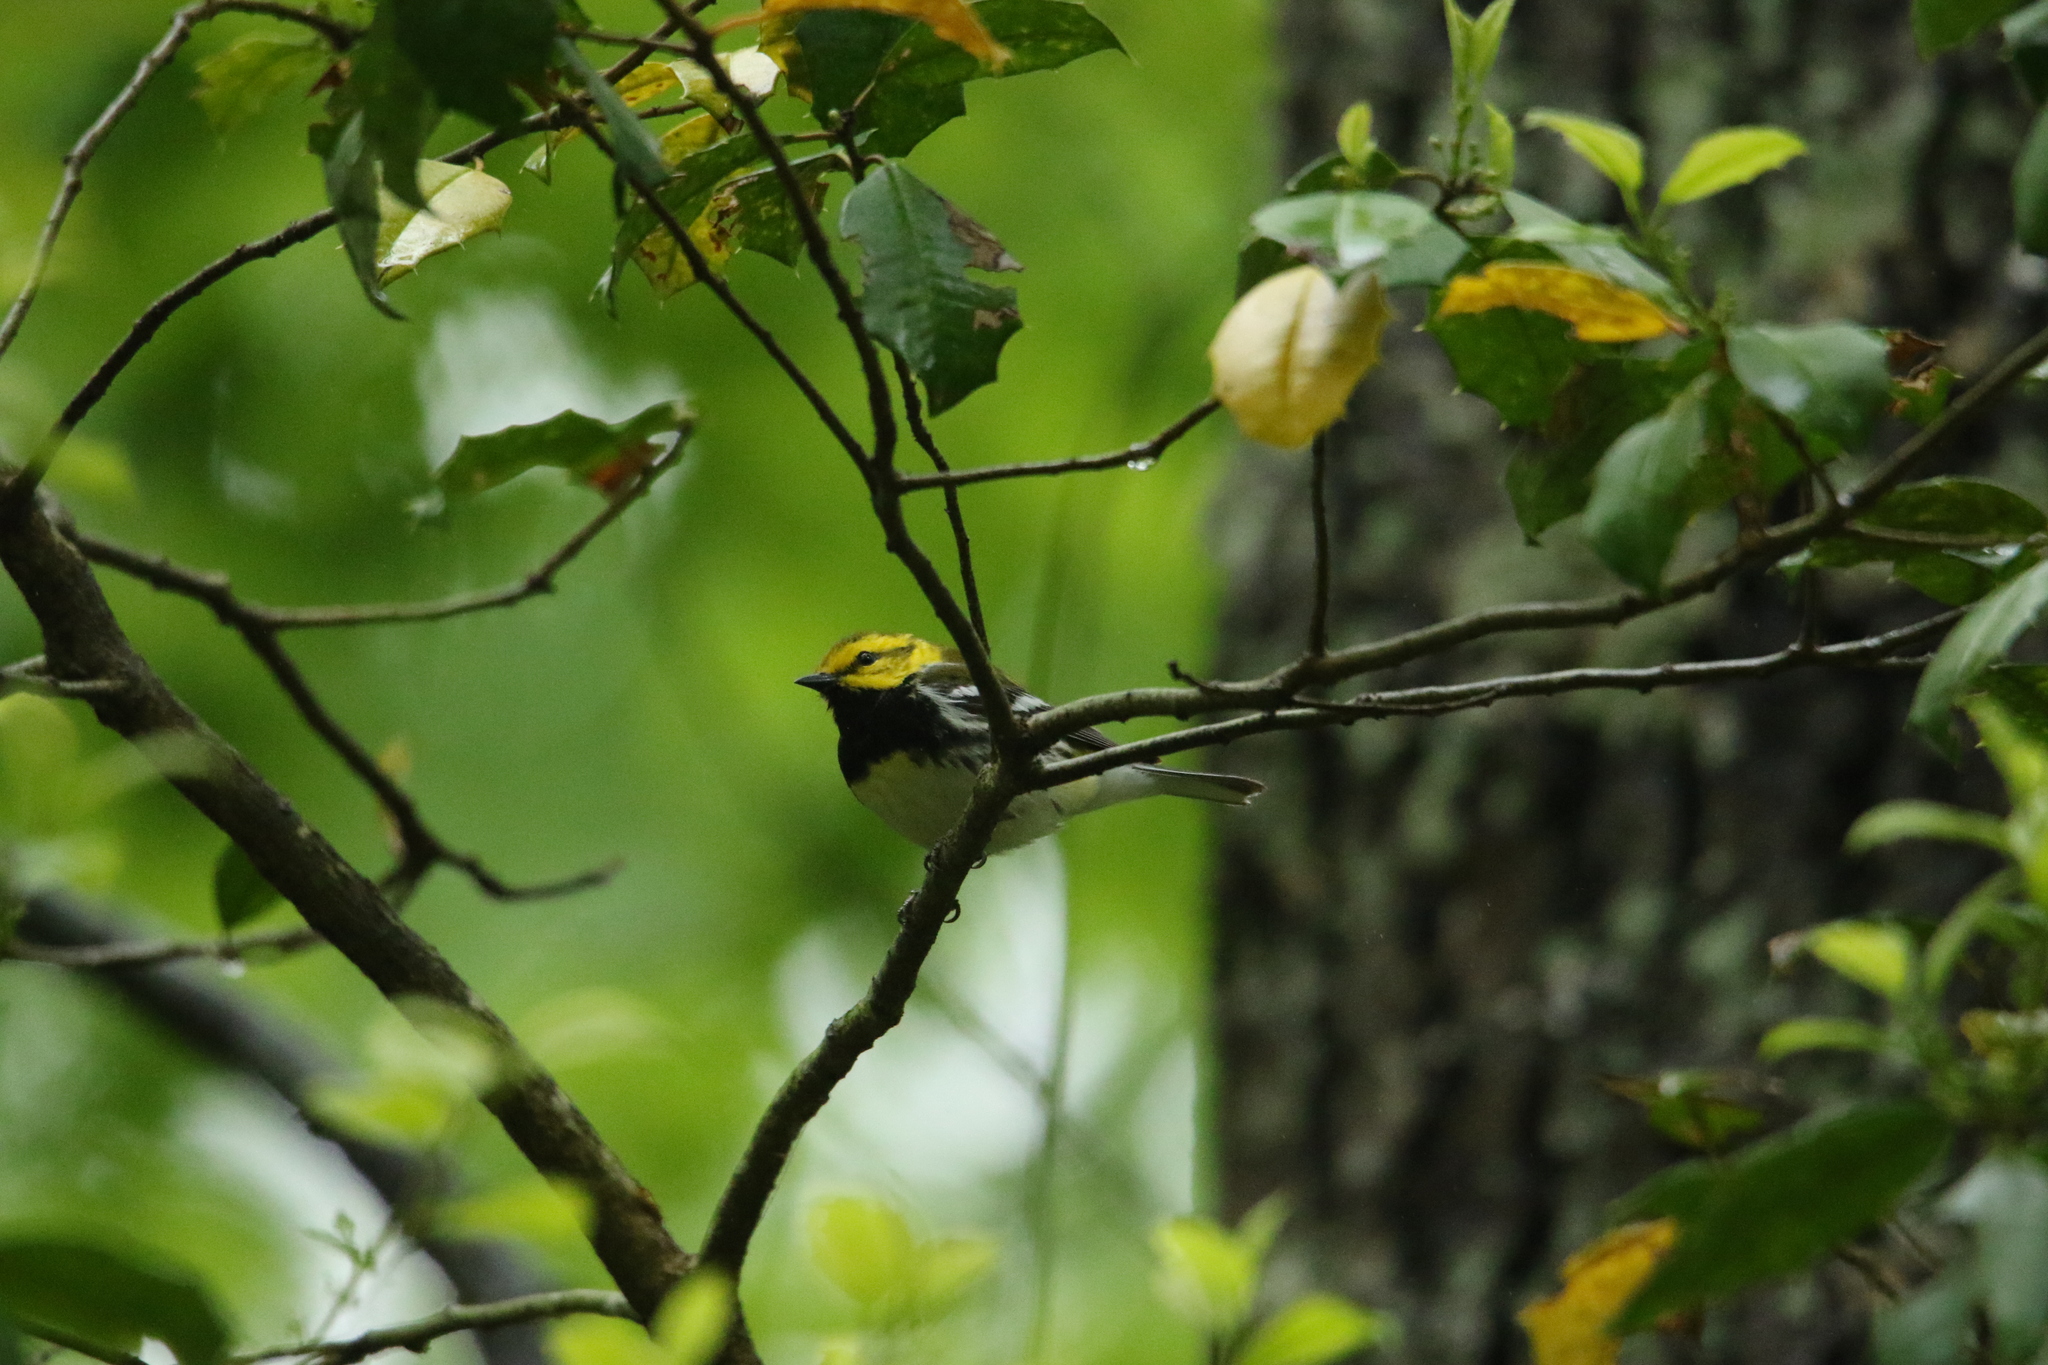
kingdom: Animalia
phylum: Chordata
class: Aves
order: Passeriformes
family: Parulidae
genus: Setophaga
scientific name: Setophaga virens
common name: Black-throated green warbler
